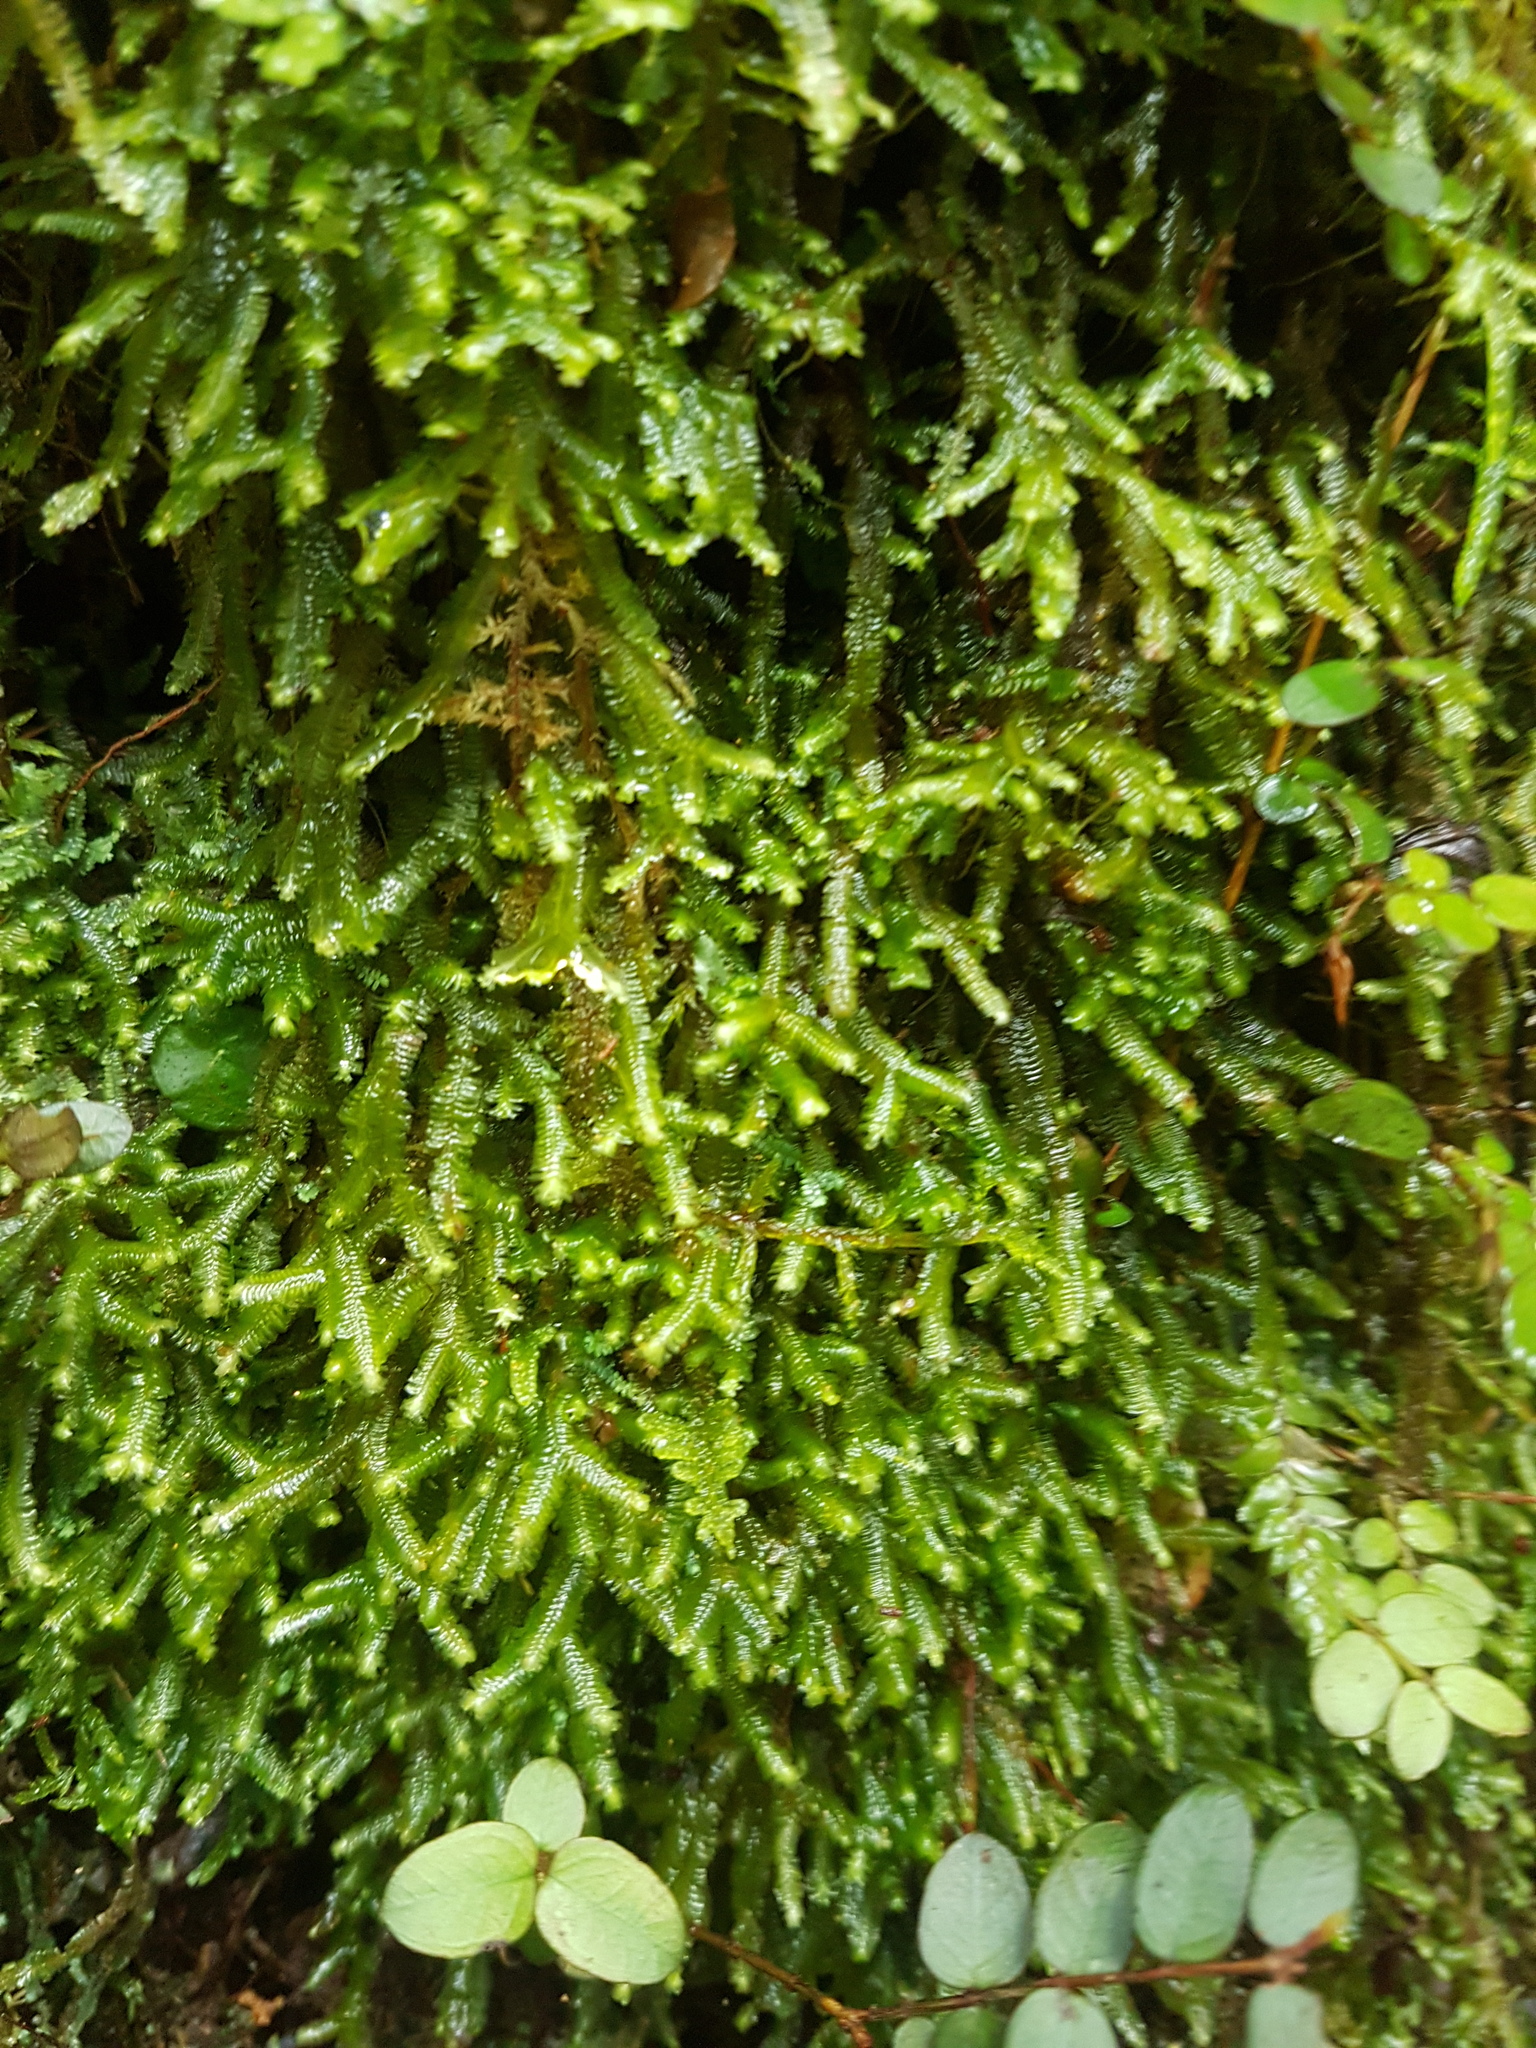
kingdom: Plantae
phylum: Marchantiophyta
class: Jungermanniopsida
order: Porellales
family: Porellaceae
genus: Porella
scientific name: Porella elegantula
